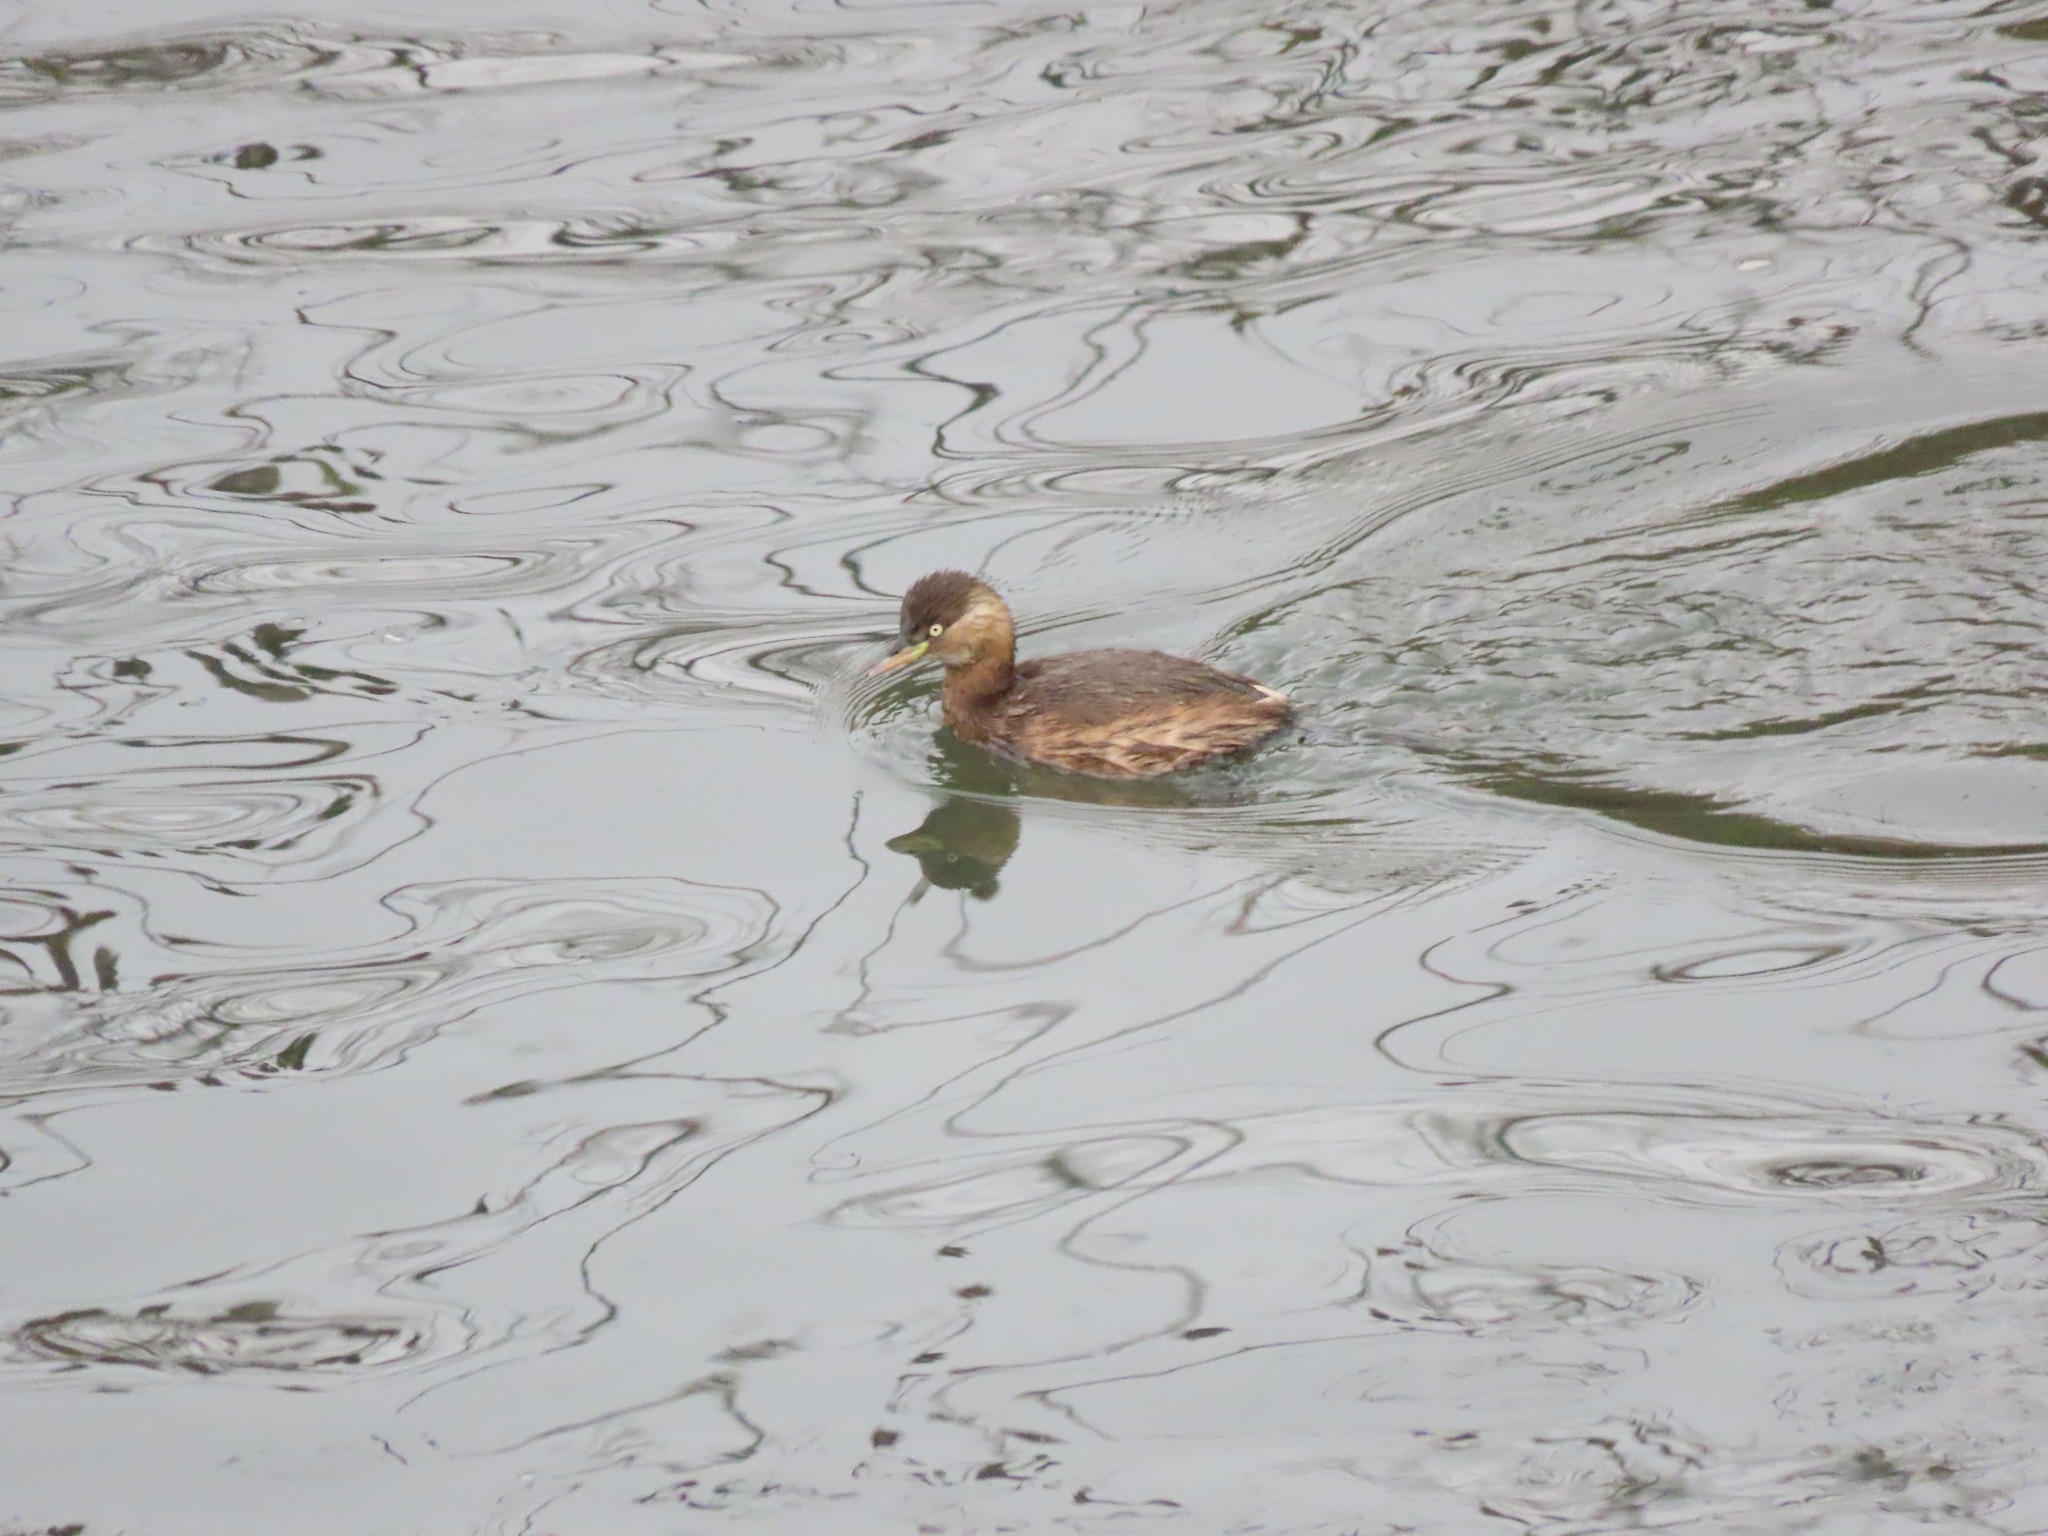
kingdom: Animalia
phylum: Chordata
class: Aves
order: Podicipediformes
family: Podicipedidae
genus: Tachybaptus
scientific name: Tachybaptus ruficollis
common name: Little grebe
